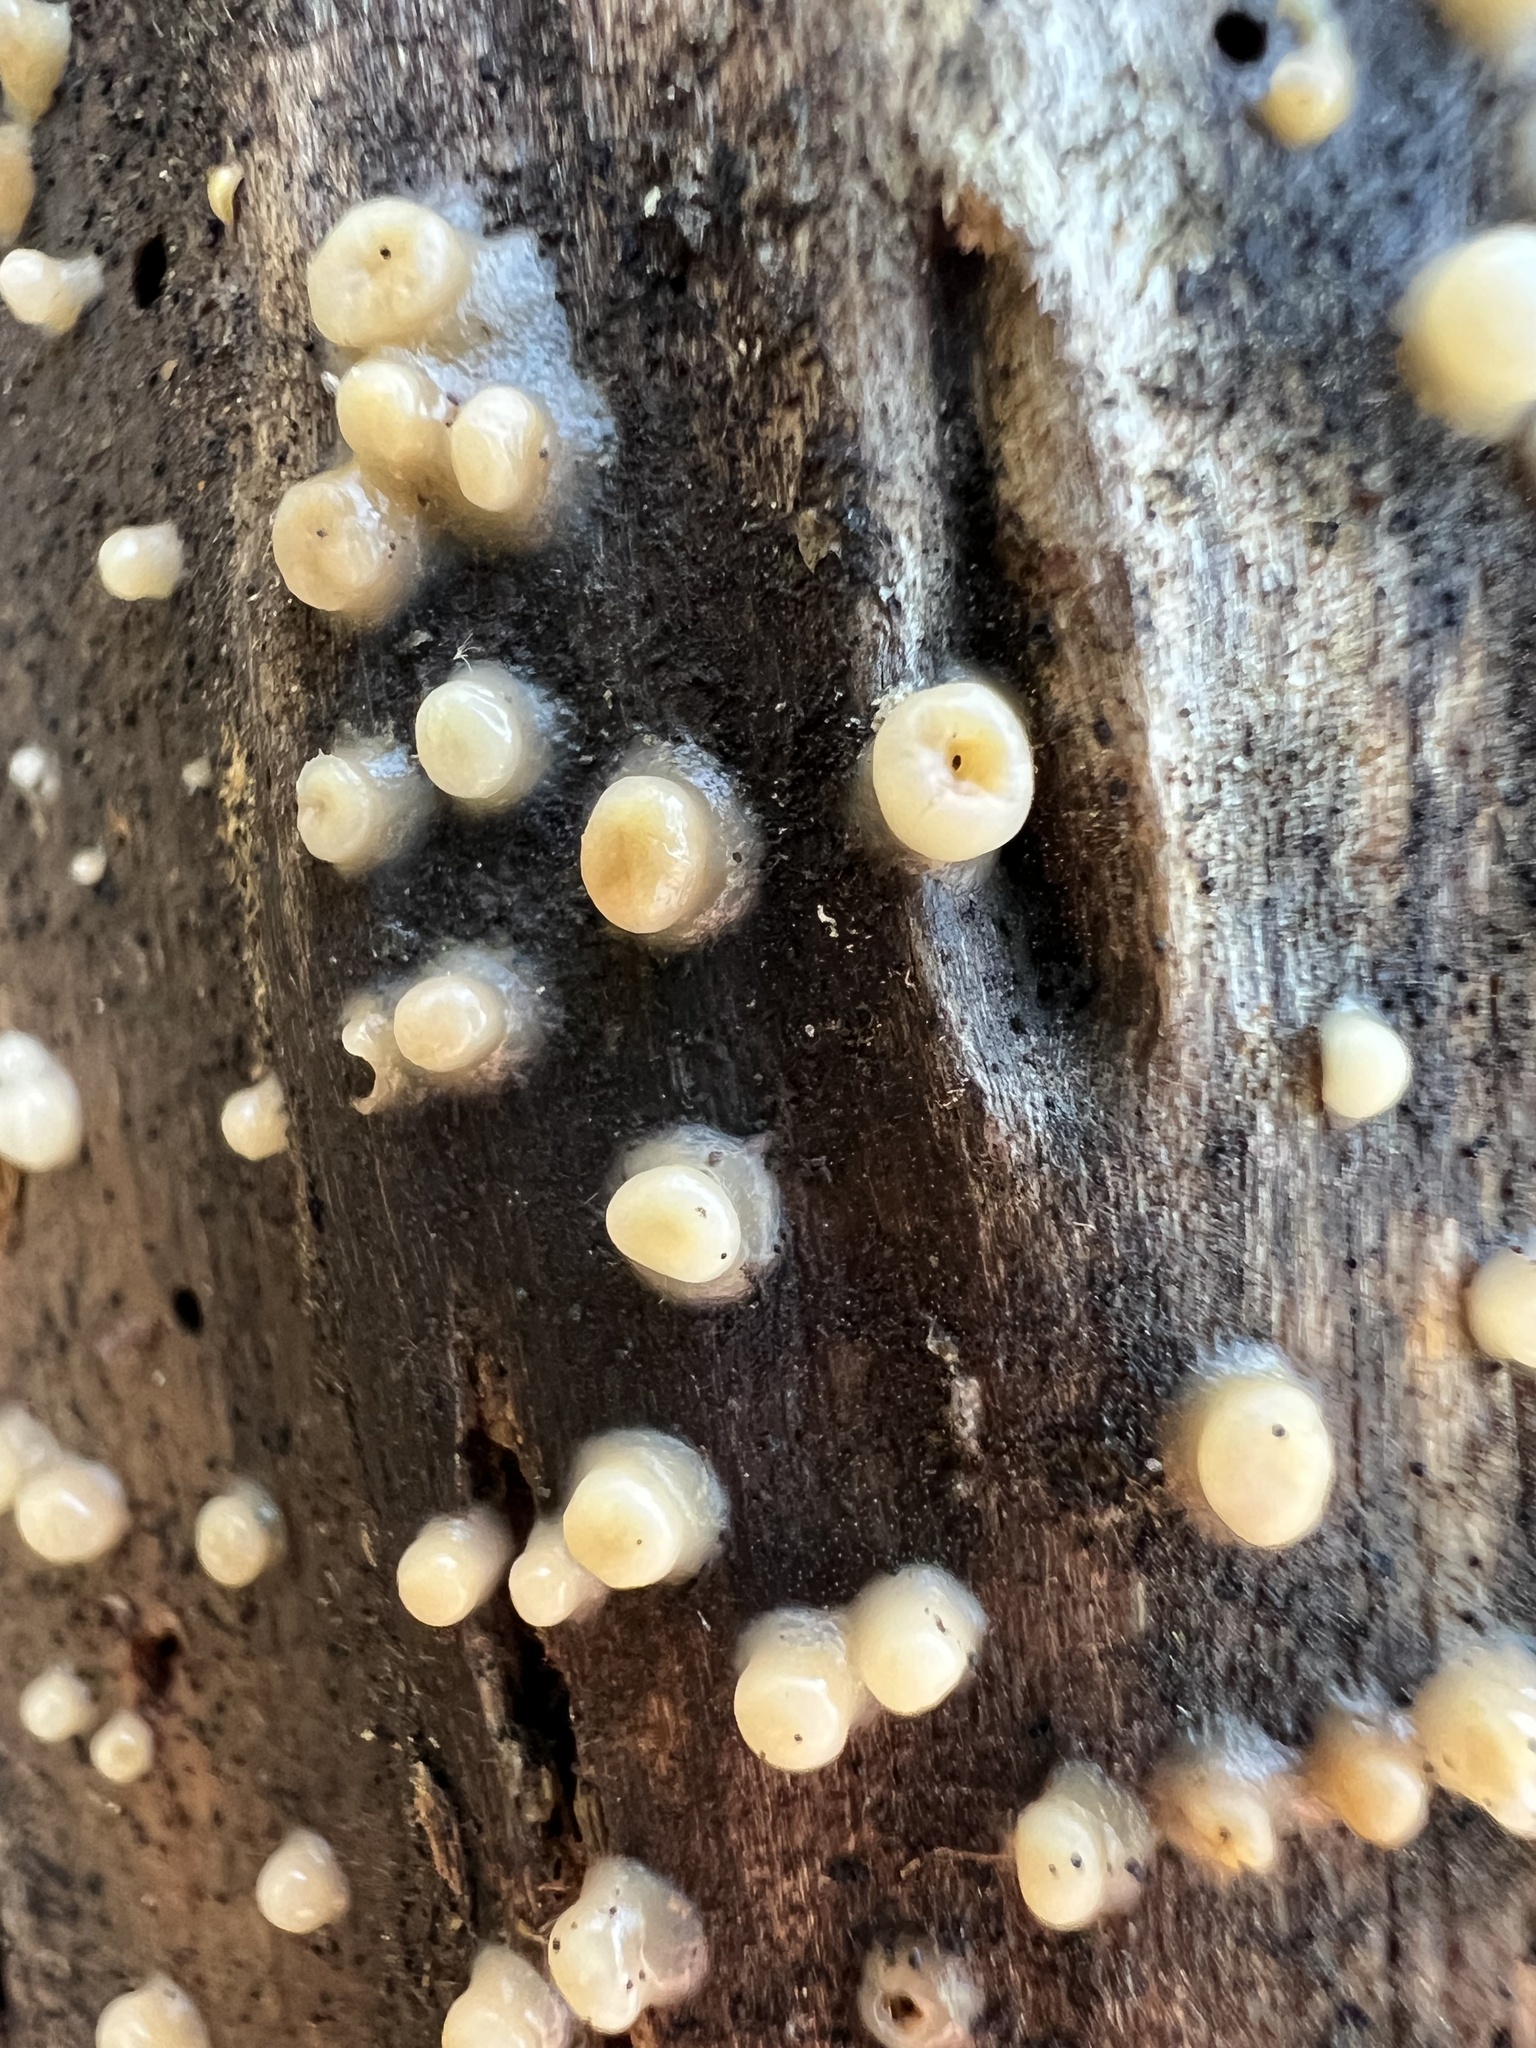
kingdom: Fungi
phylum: Basidiomycota
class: Atractiellomycetes
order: Atractiellales
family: Phleogenaceae
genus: Helicogloea
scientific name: Helicogloea compressa
